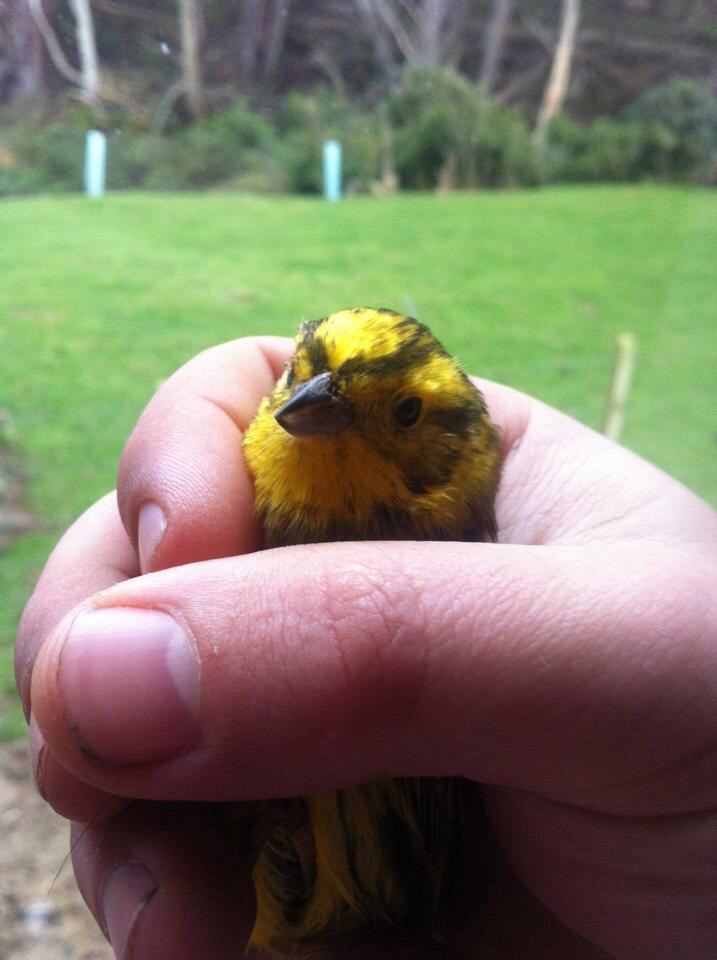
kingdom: Animalia
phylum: Chordata
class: Aves
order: Passeriformes
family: Emberizidae
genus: Emberiza
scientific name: Emberiza citrinella
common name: Yellowhammer
